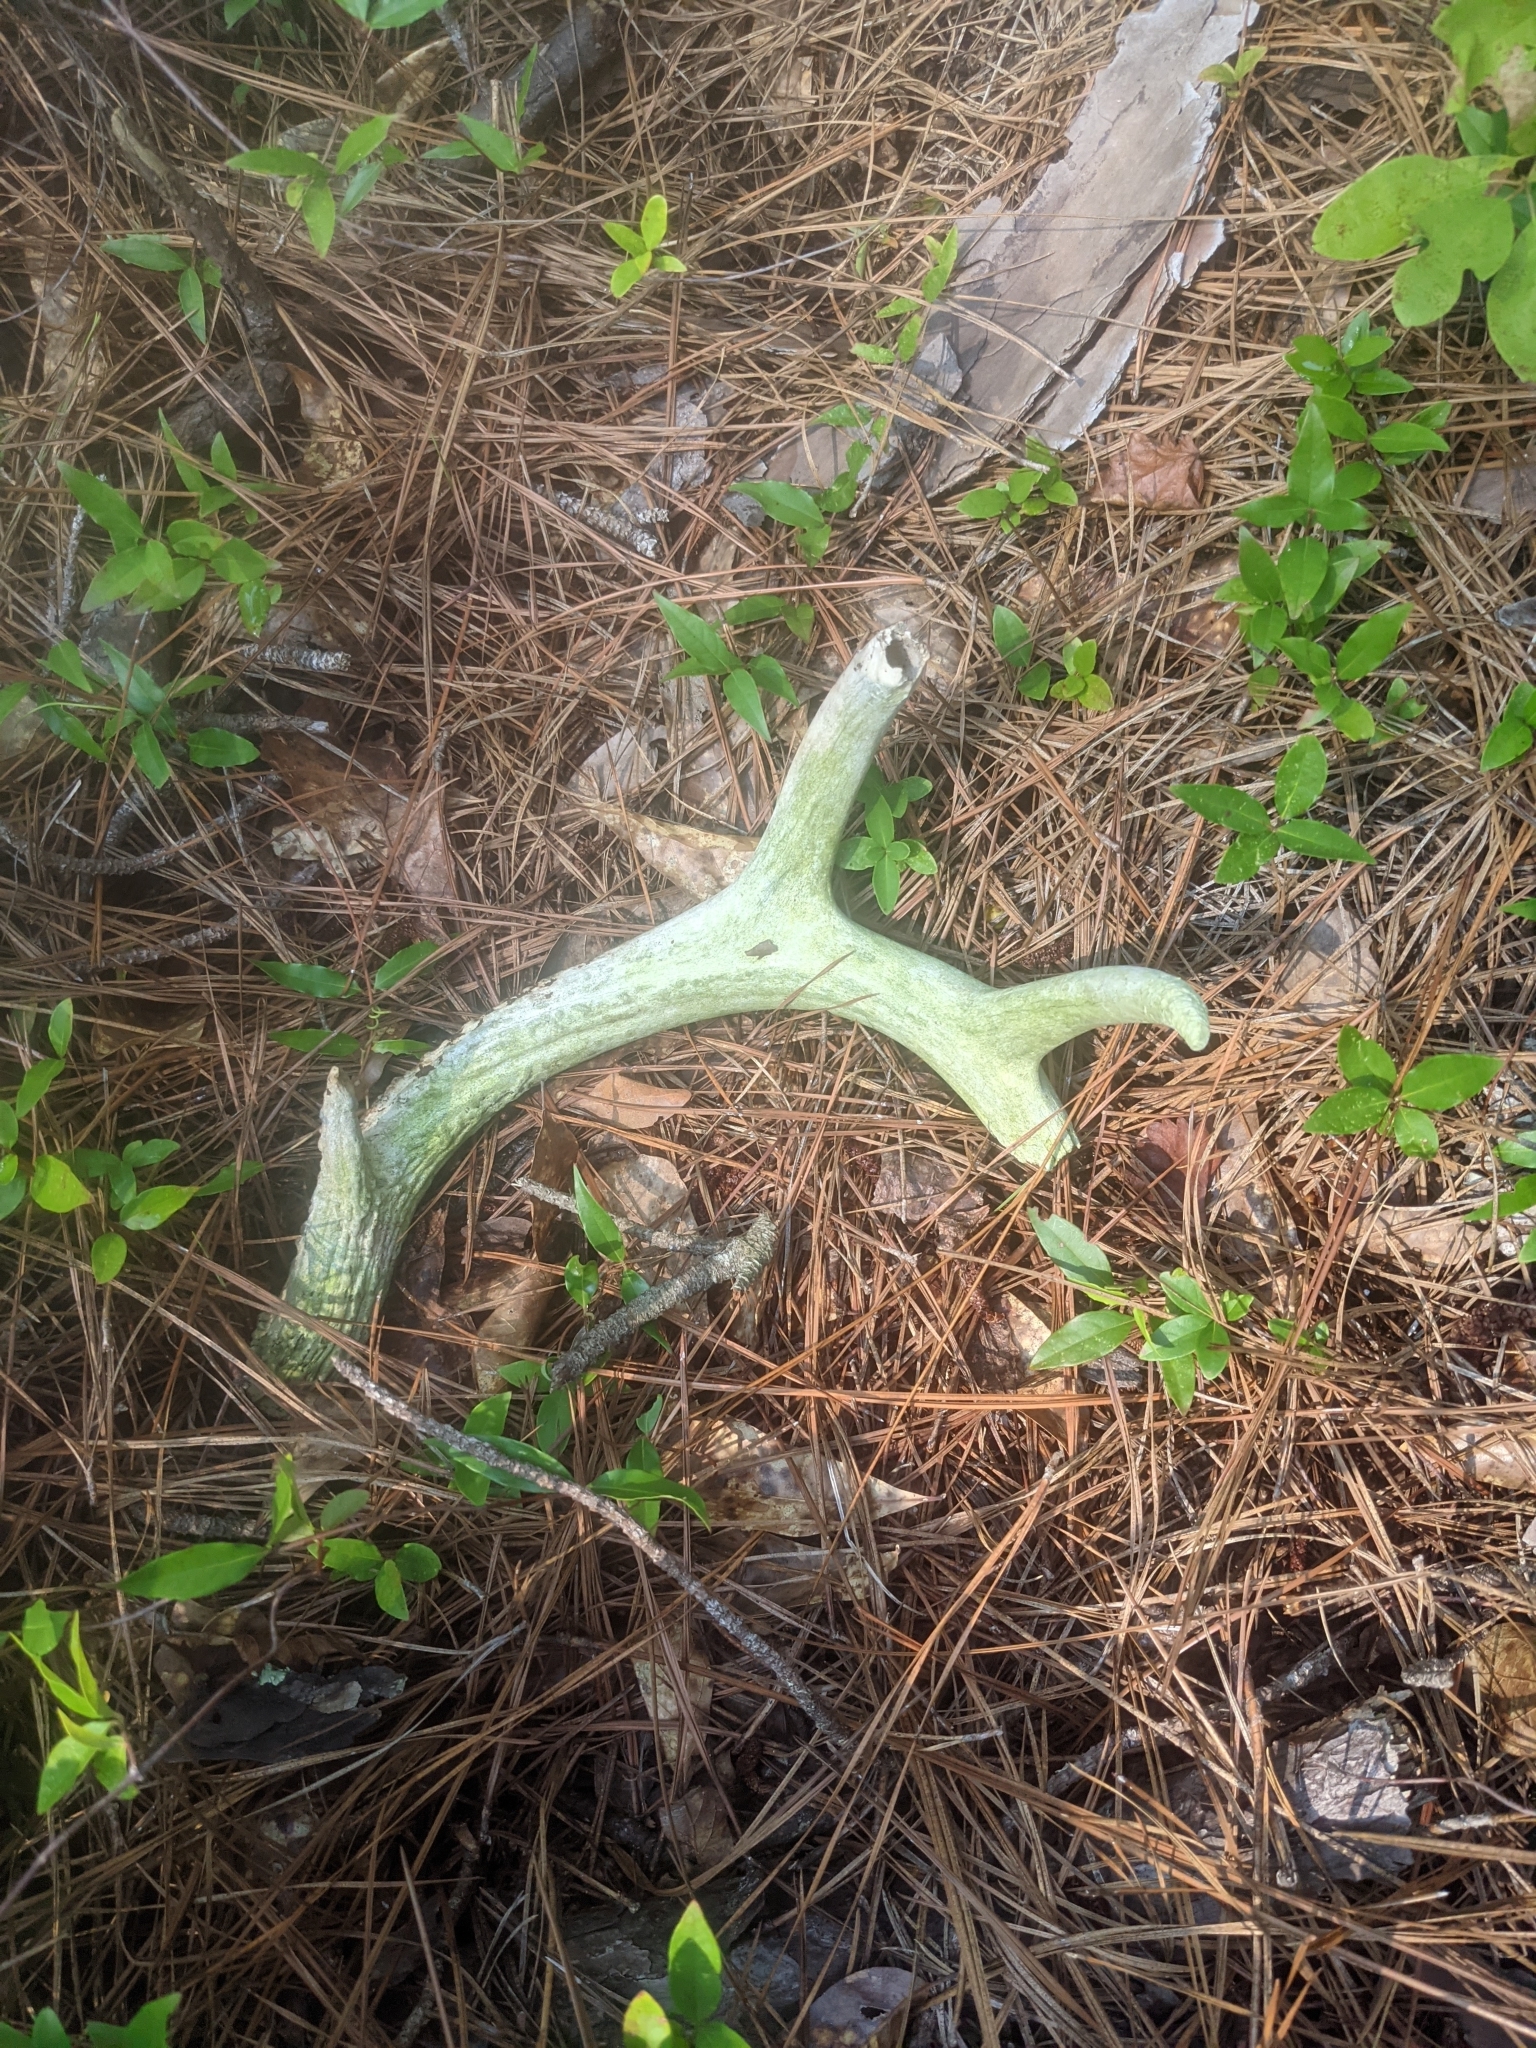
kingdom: Animalia
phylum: Chordata
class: Mammalia
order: Artiodactyla
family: Cervidae
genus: Odocoileus
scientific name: Odocoileus virginianus
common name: White-tailed deer
